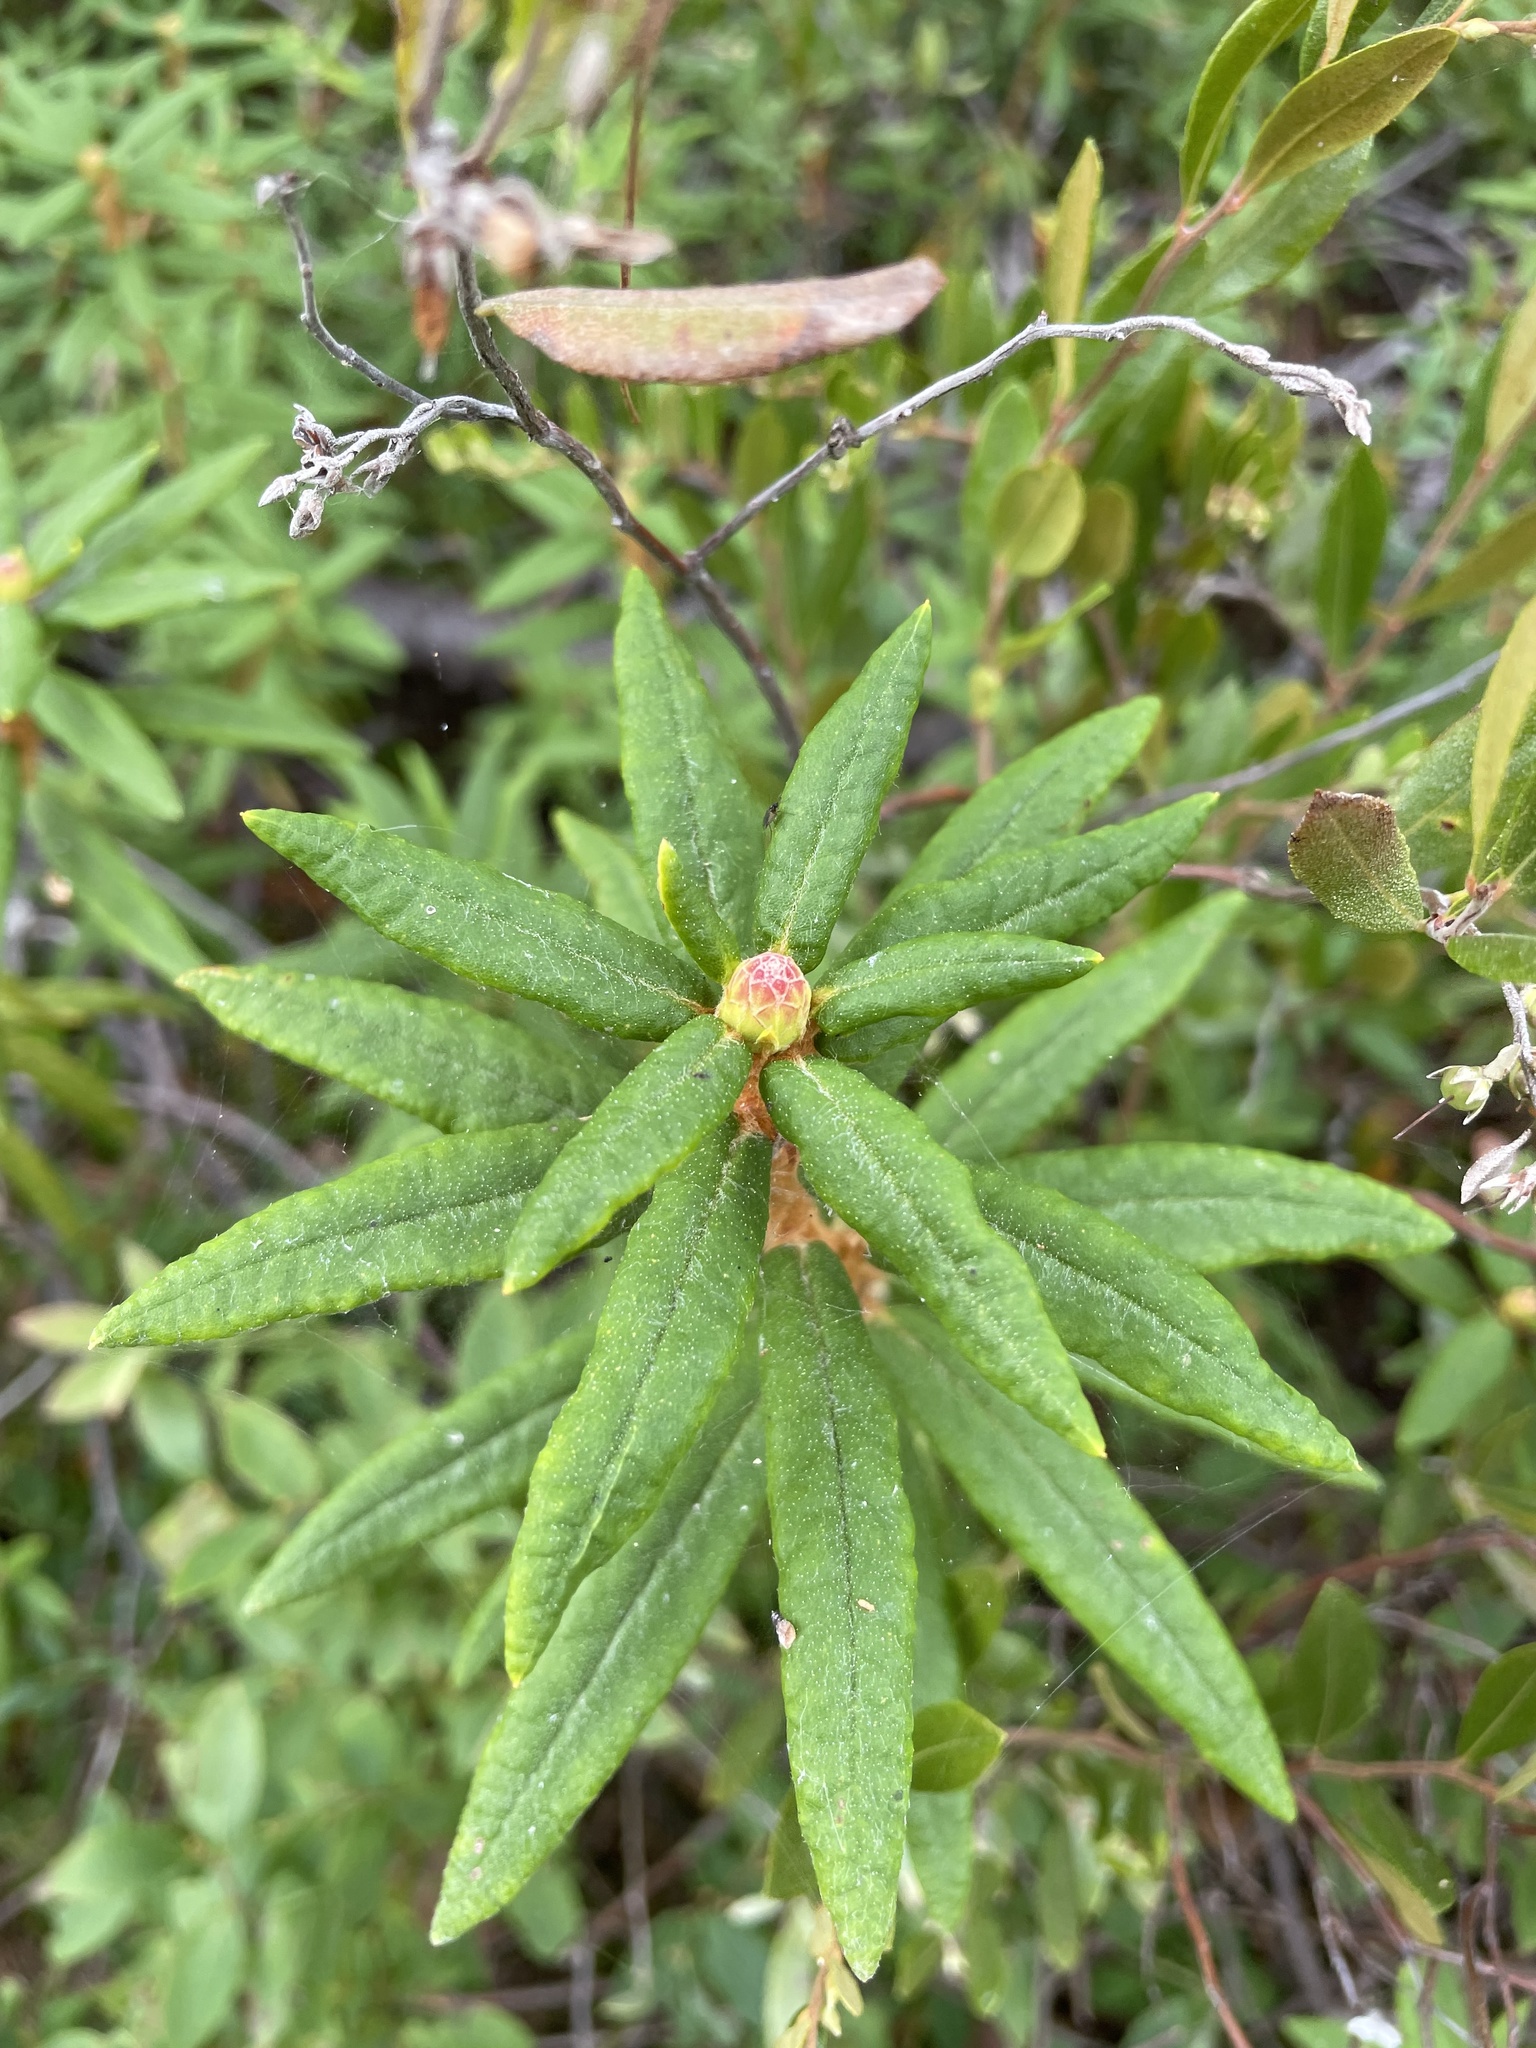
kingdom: Plantae
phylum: Tracheophyta
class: Magnoliopsida
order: Ericales
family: Ericaceae
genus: Rhododendron
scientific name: Rhododendron groenlandicum
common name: Bog labrador tea
